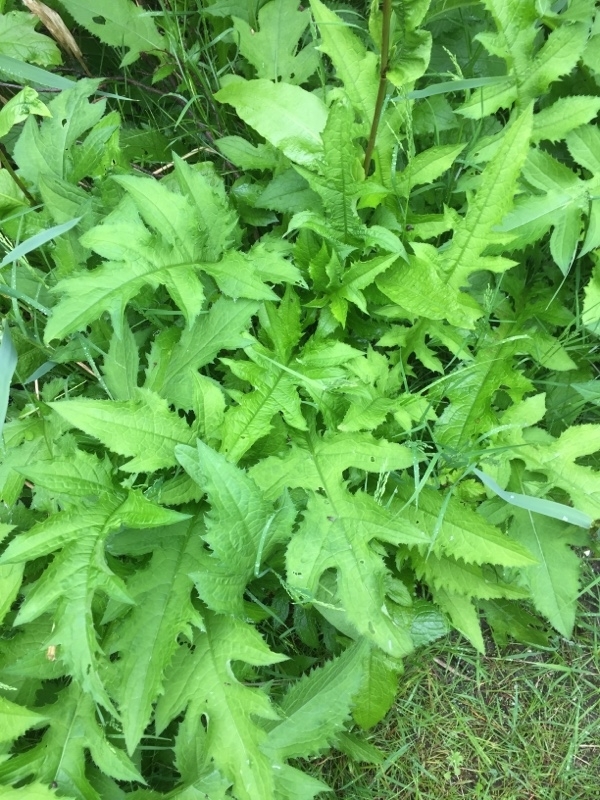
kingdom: Plantae
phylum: Tracheophyta
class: Magnoliopsida
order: Asterales
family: Asteraceae
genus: Cirsium
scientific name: Cirsium oleraceum
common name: Cabbage thistle
